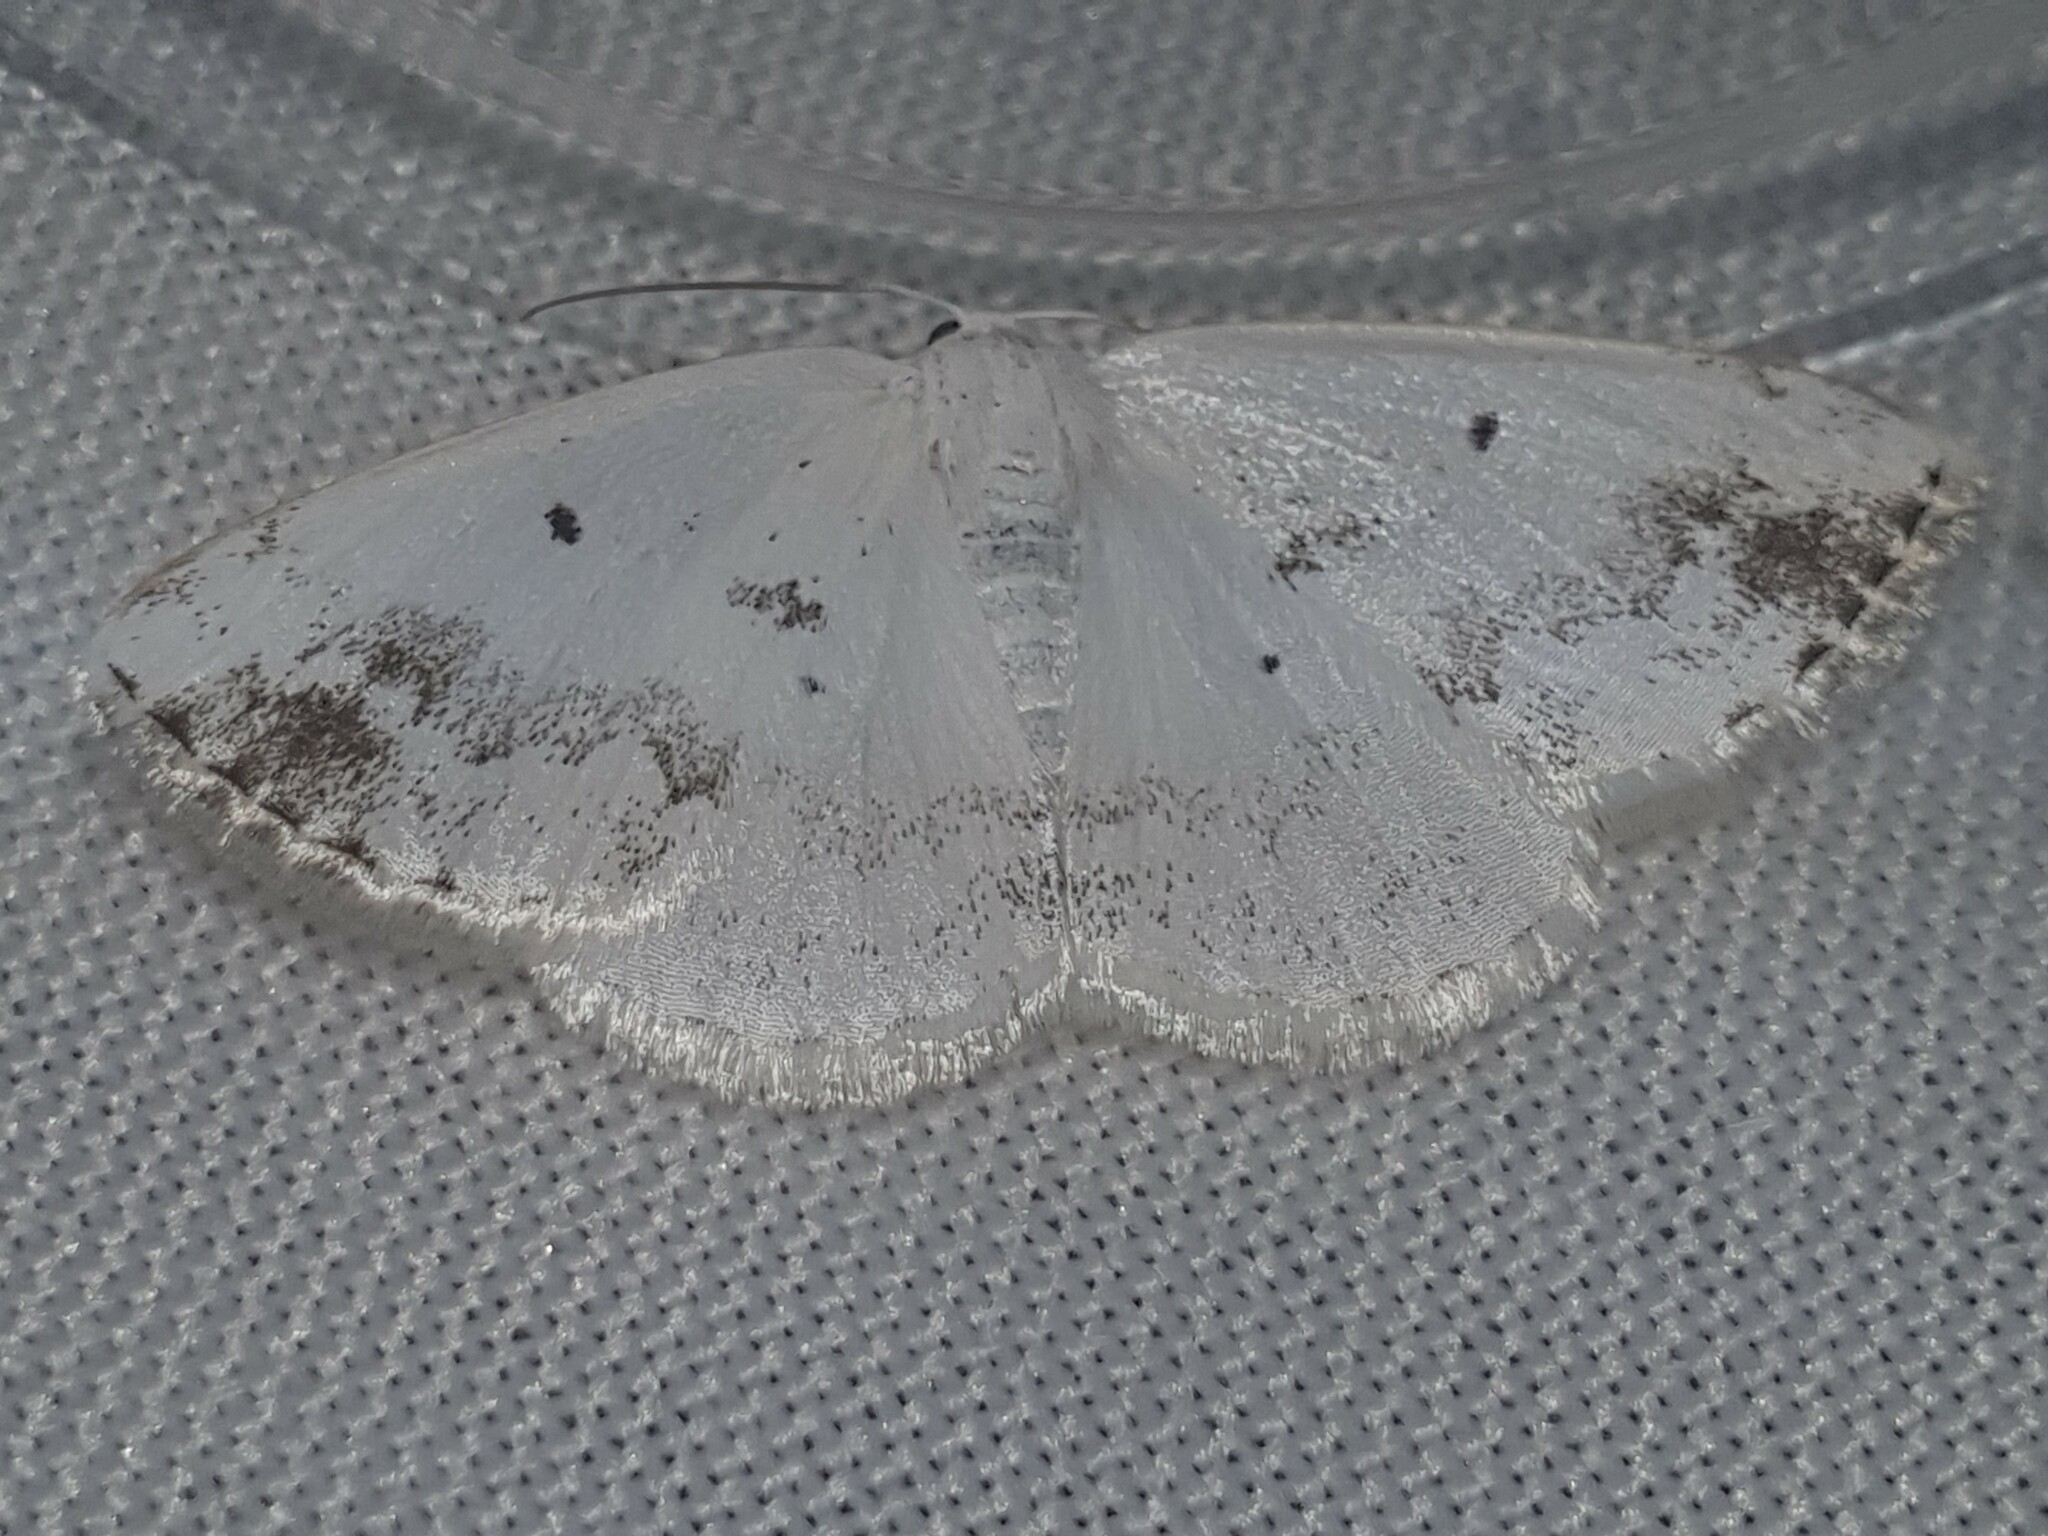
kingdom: Animalia
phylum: Arthropoda
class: Insecta
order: Lepidoptera
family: Geometridae
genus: Lomographa
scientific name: Lomographa temerata
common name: Clouded silver
